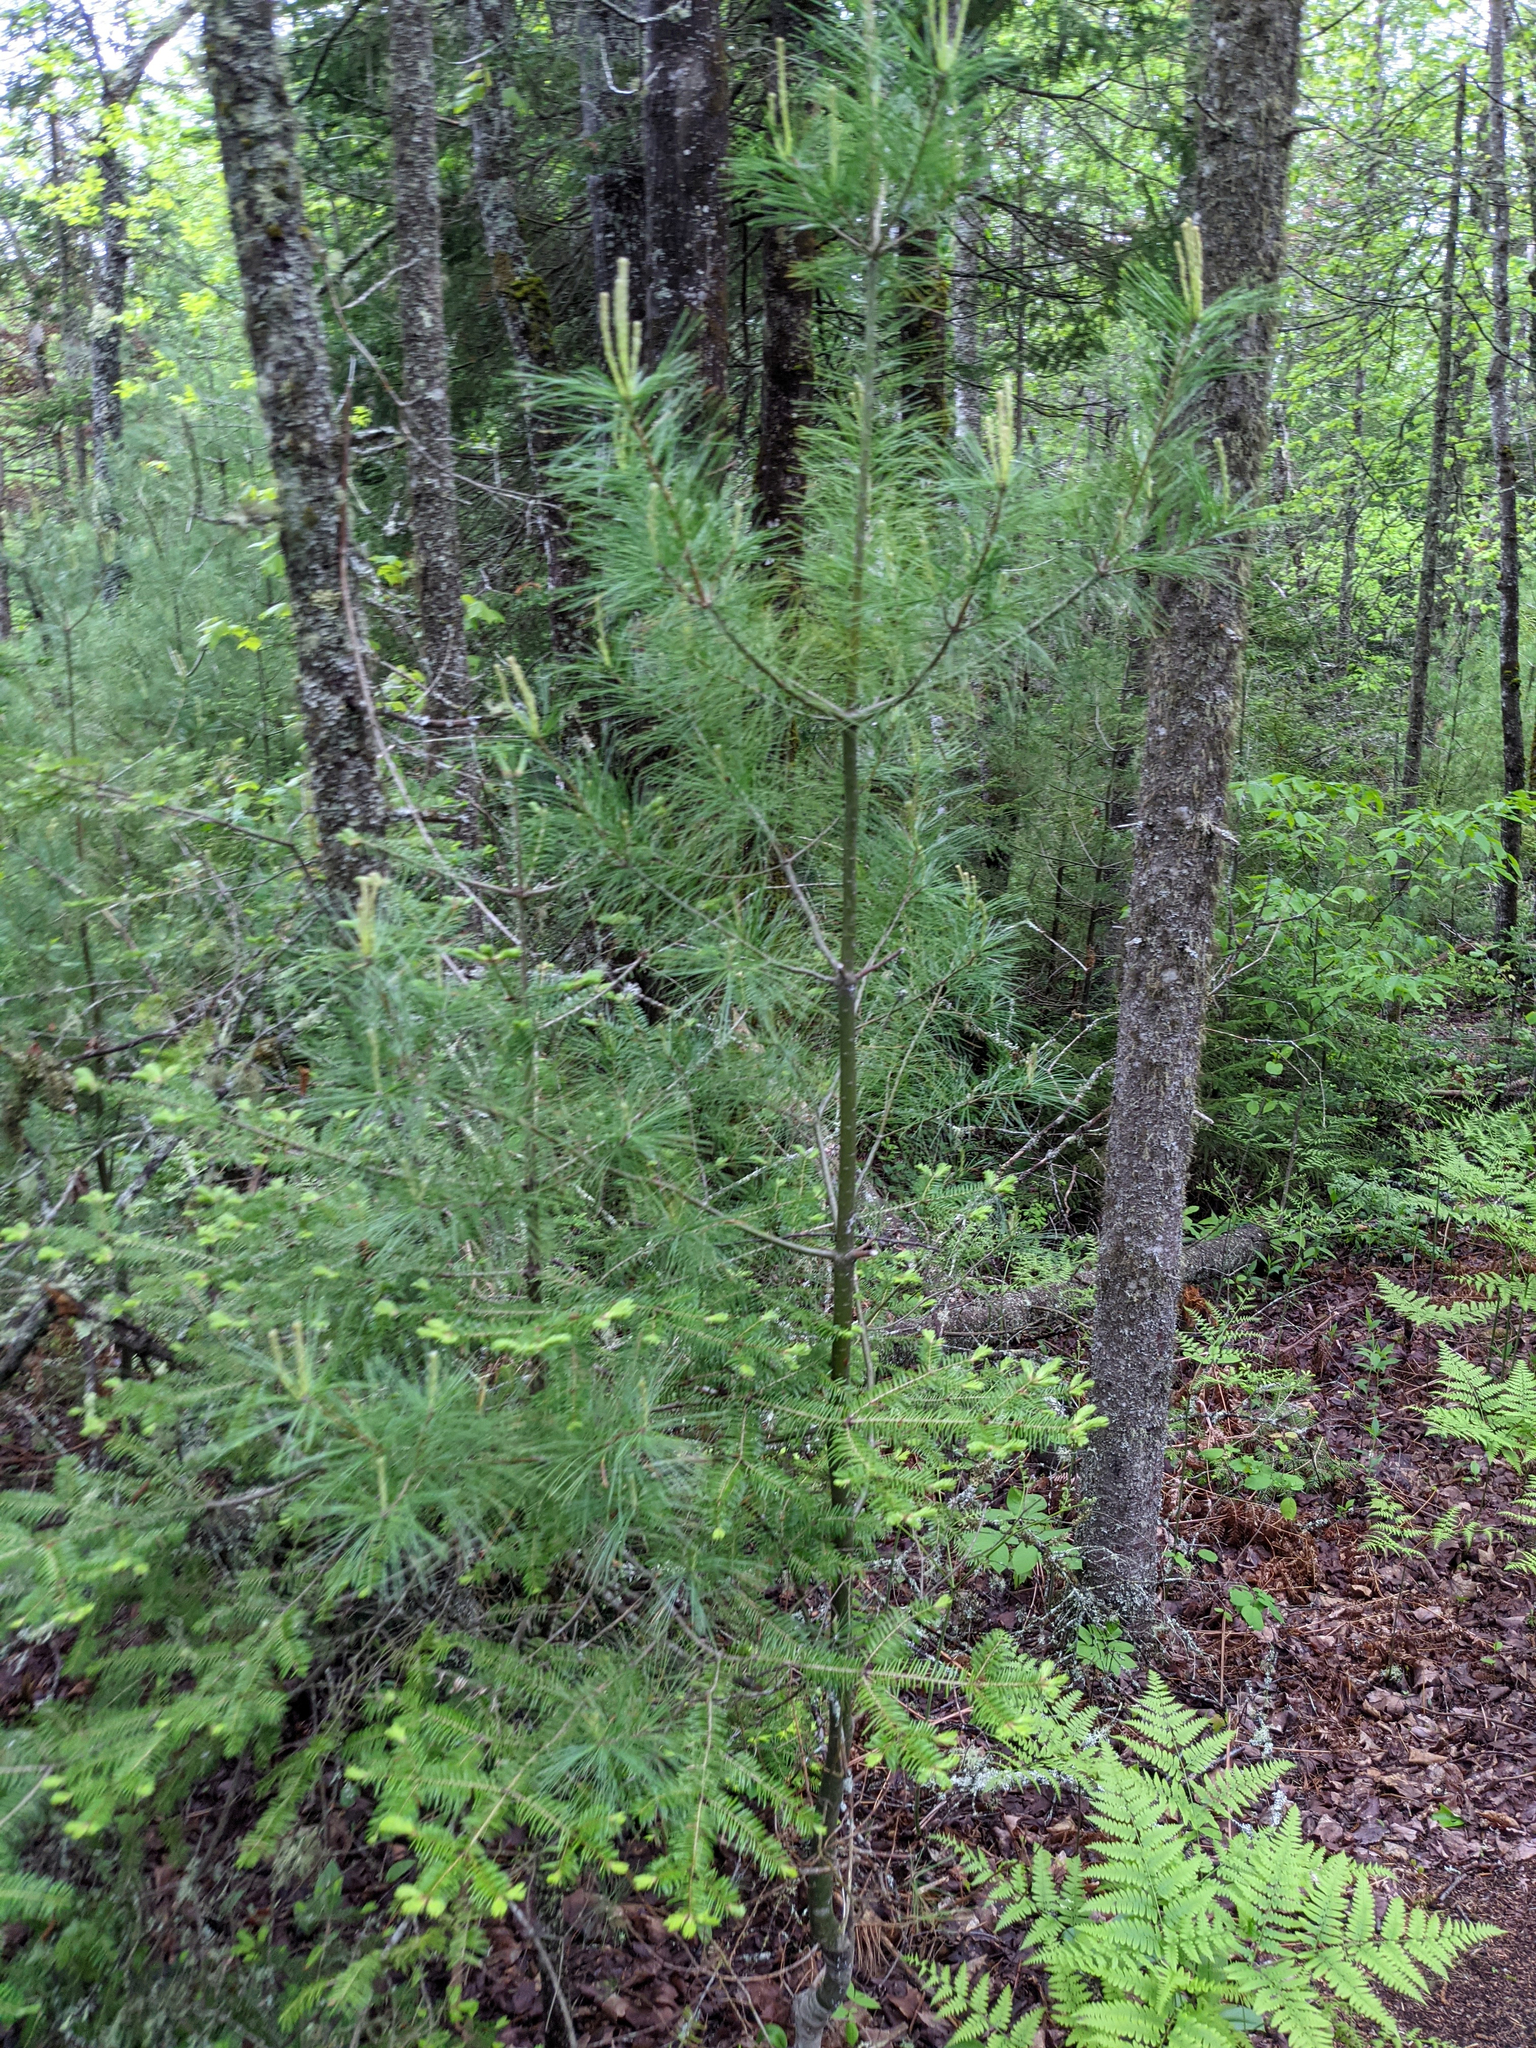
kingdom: Plantae
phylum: Tracheophyta
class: Pinopsida
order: Pinales
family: Pinaceae
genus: Pinus
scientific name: Pinus strobus
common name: Weymouth pine
